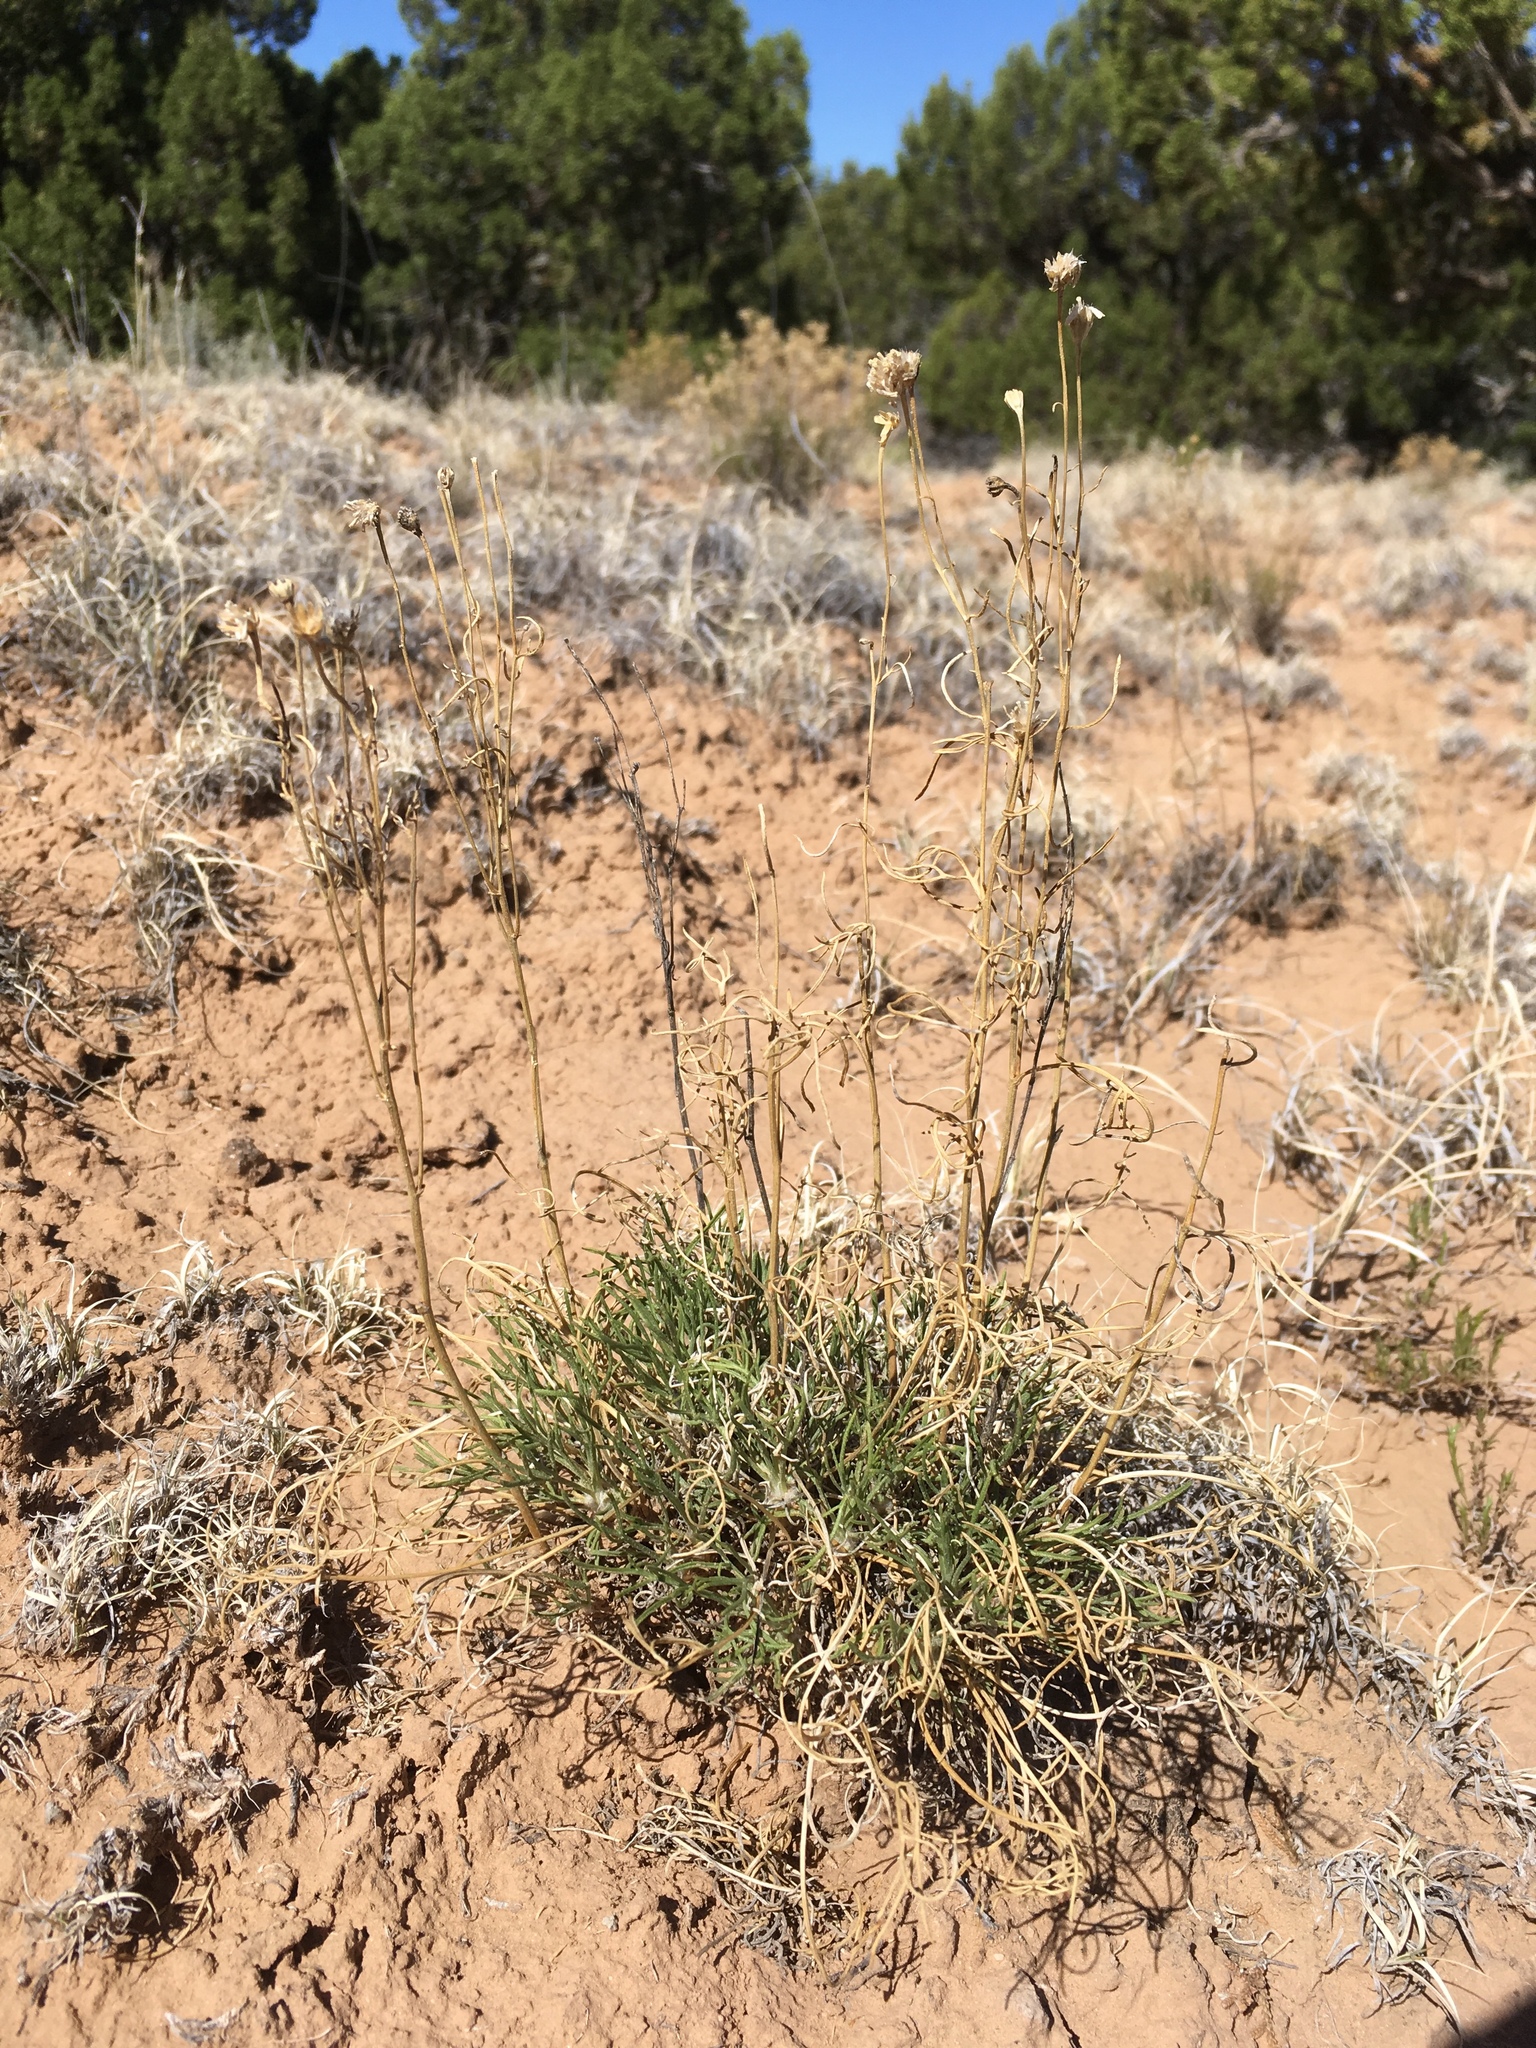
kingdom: Plantae
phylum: Tracheophyta
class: Magnoliopsida
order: Asterales
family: Asteraceae
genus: Hymenoxys
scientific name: Hymenoxys richardsonii
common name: Pingue rubberweed
